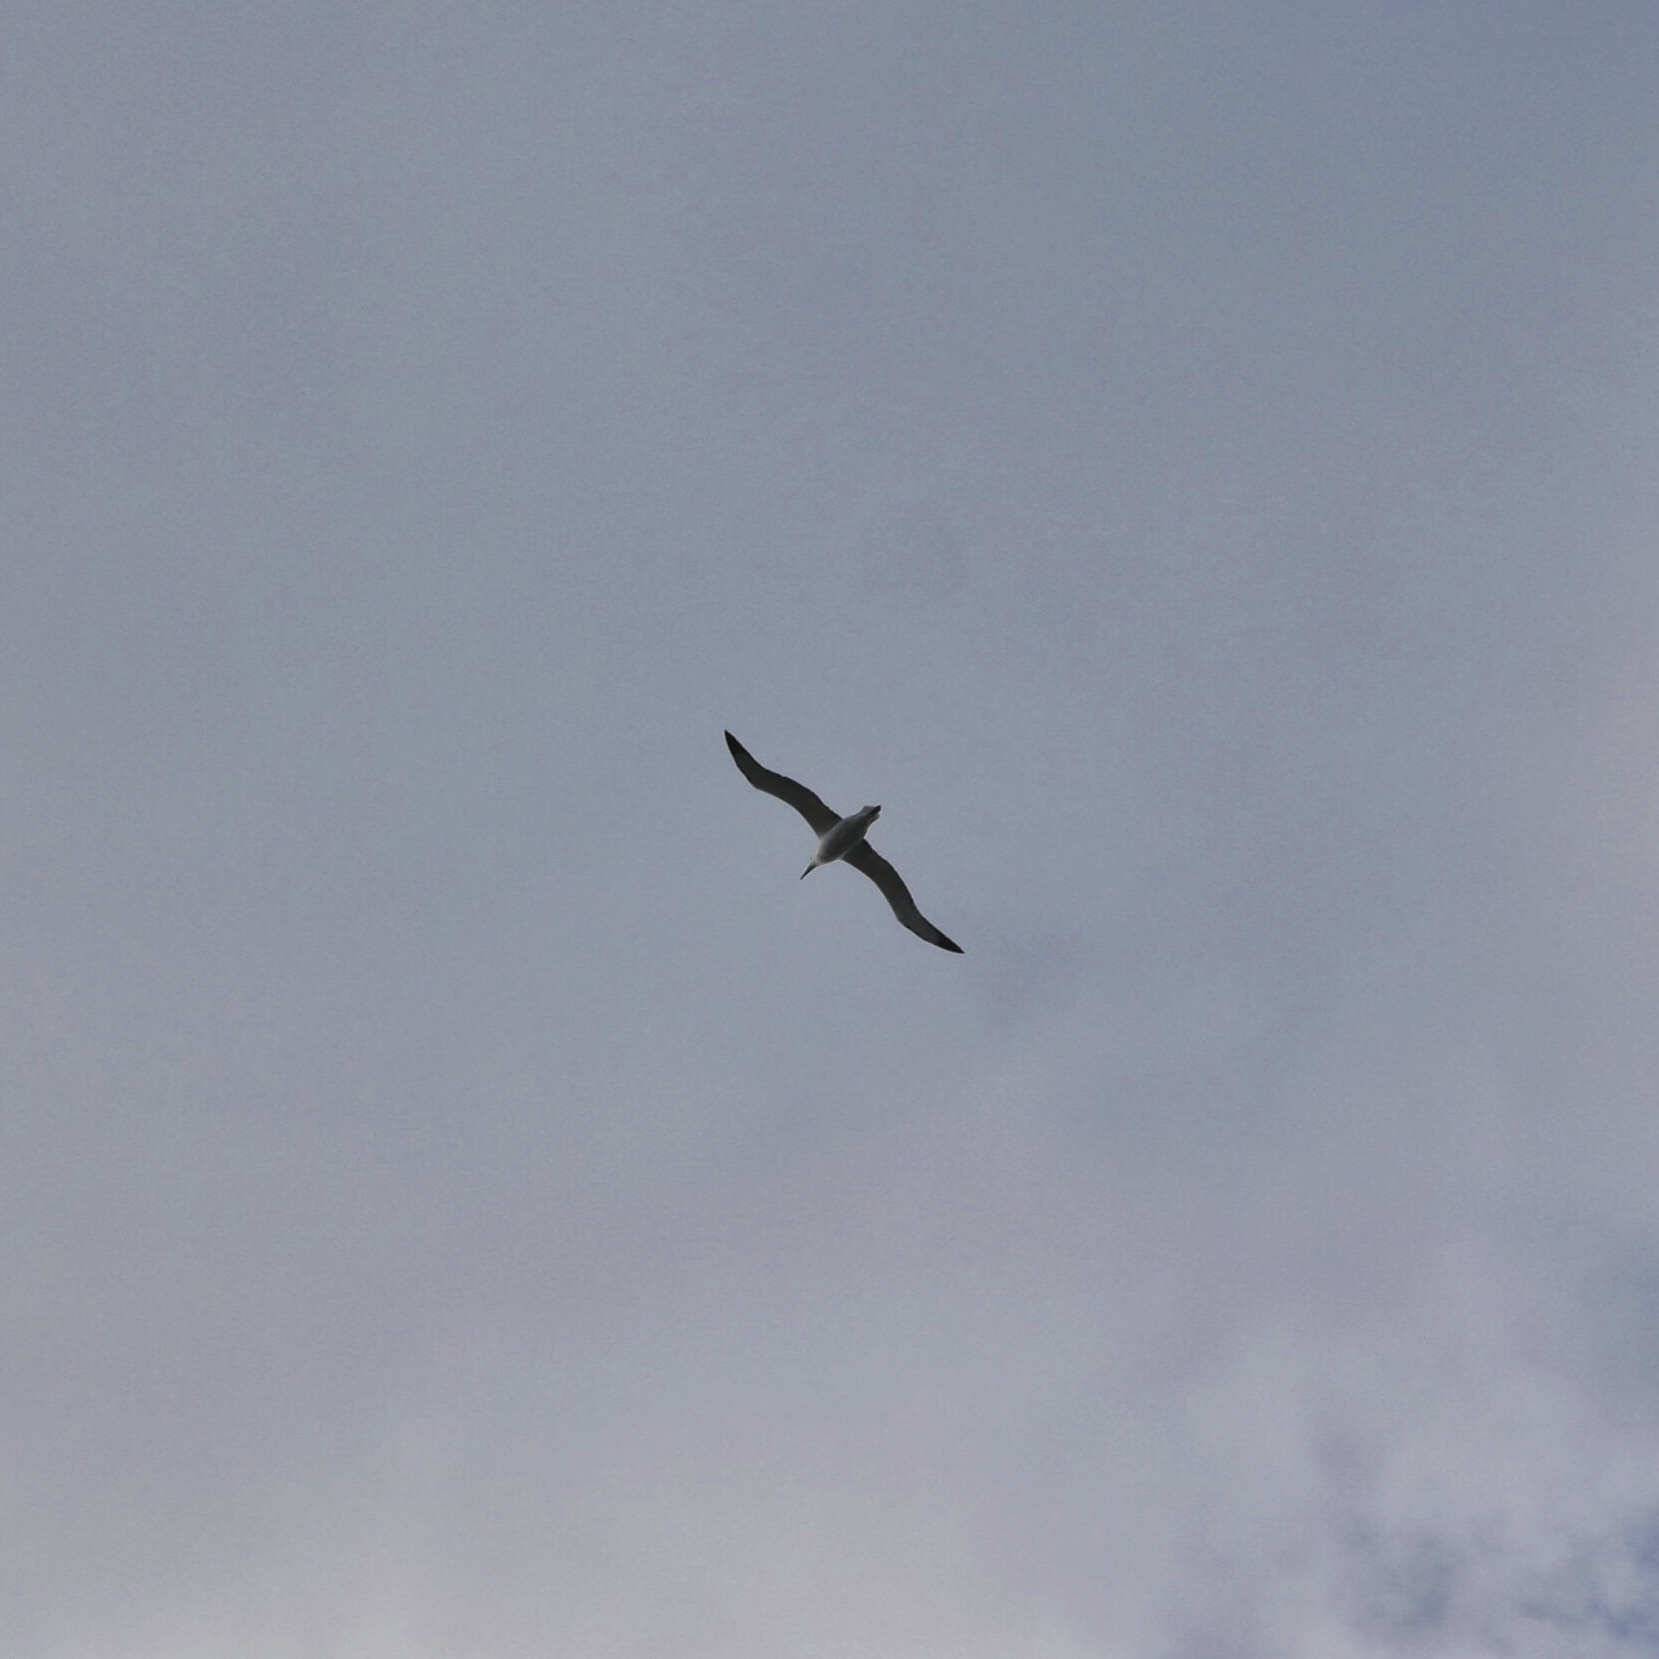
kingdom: Animalia
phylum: Chordata
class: Aves
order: Procellariiformes
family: Diomedeidae
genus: Diomedea
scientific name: Diomedea sanfordi
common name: Northern royal albatross
